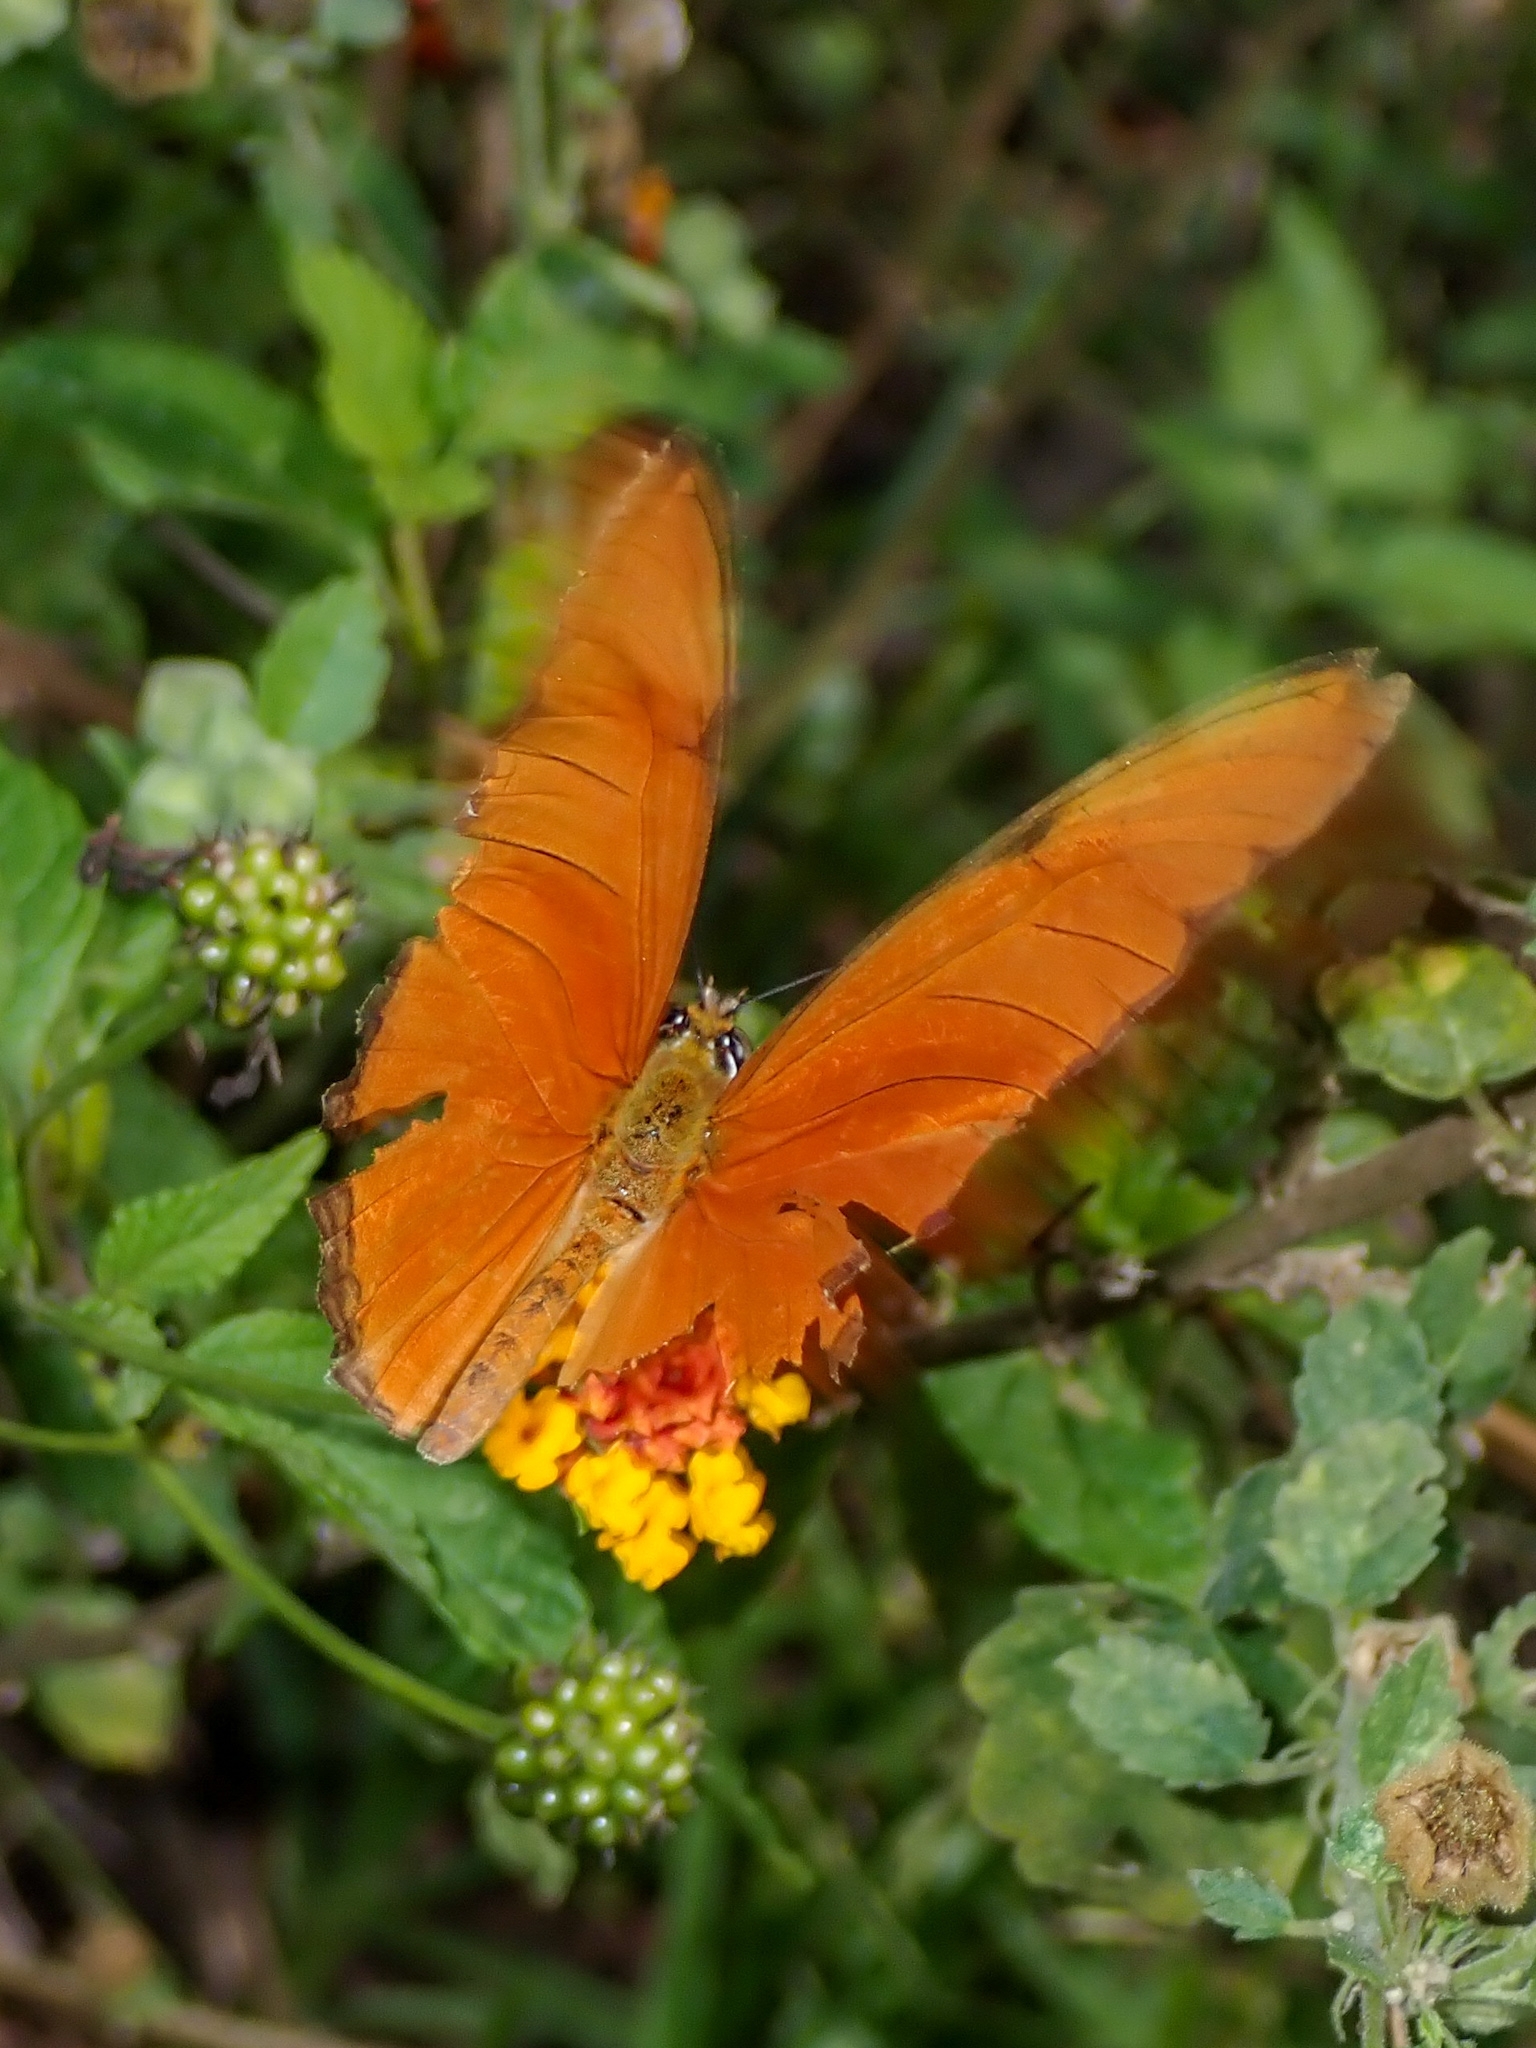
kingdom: Animalia
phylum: Arthropoda
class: Insecta
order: Lepidoptera
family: Nymphalidae
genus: Dryas
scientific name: Dryas iulia
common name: Flambeau
